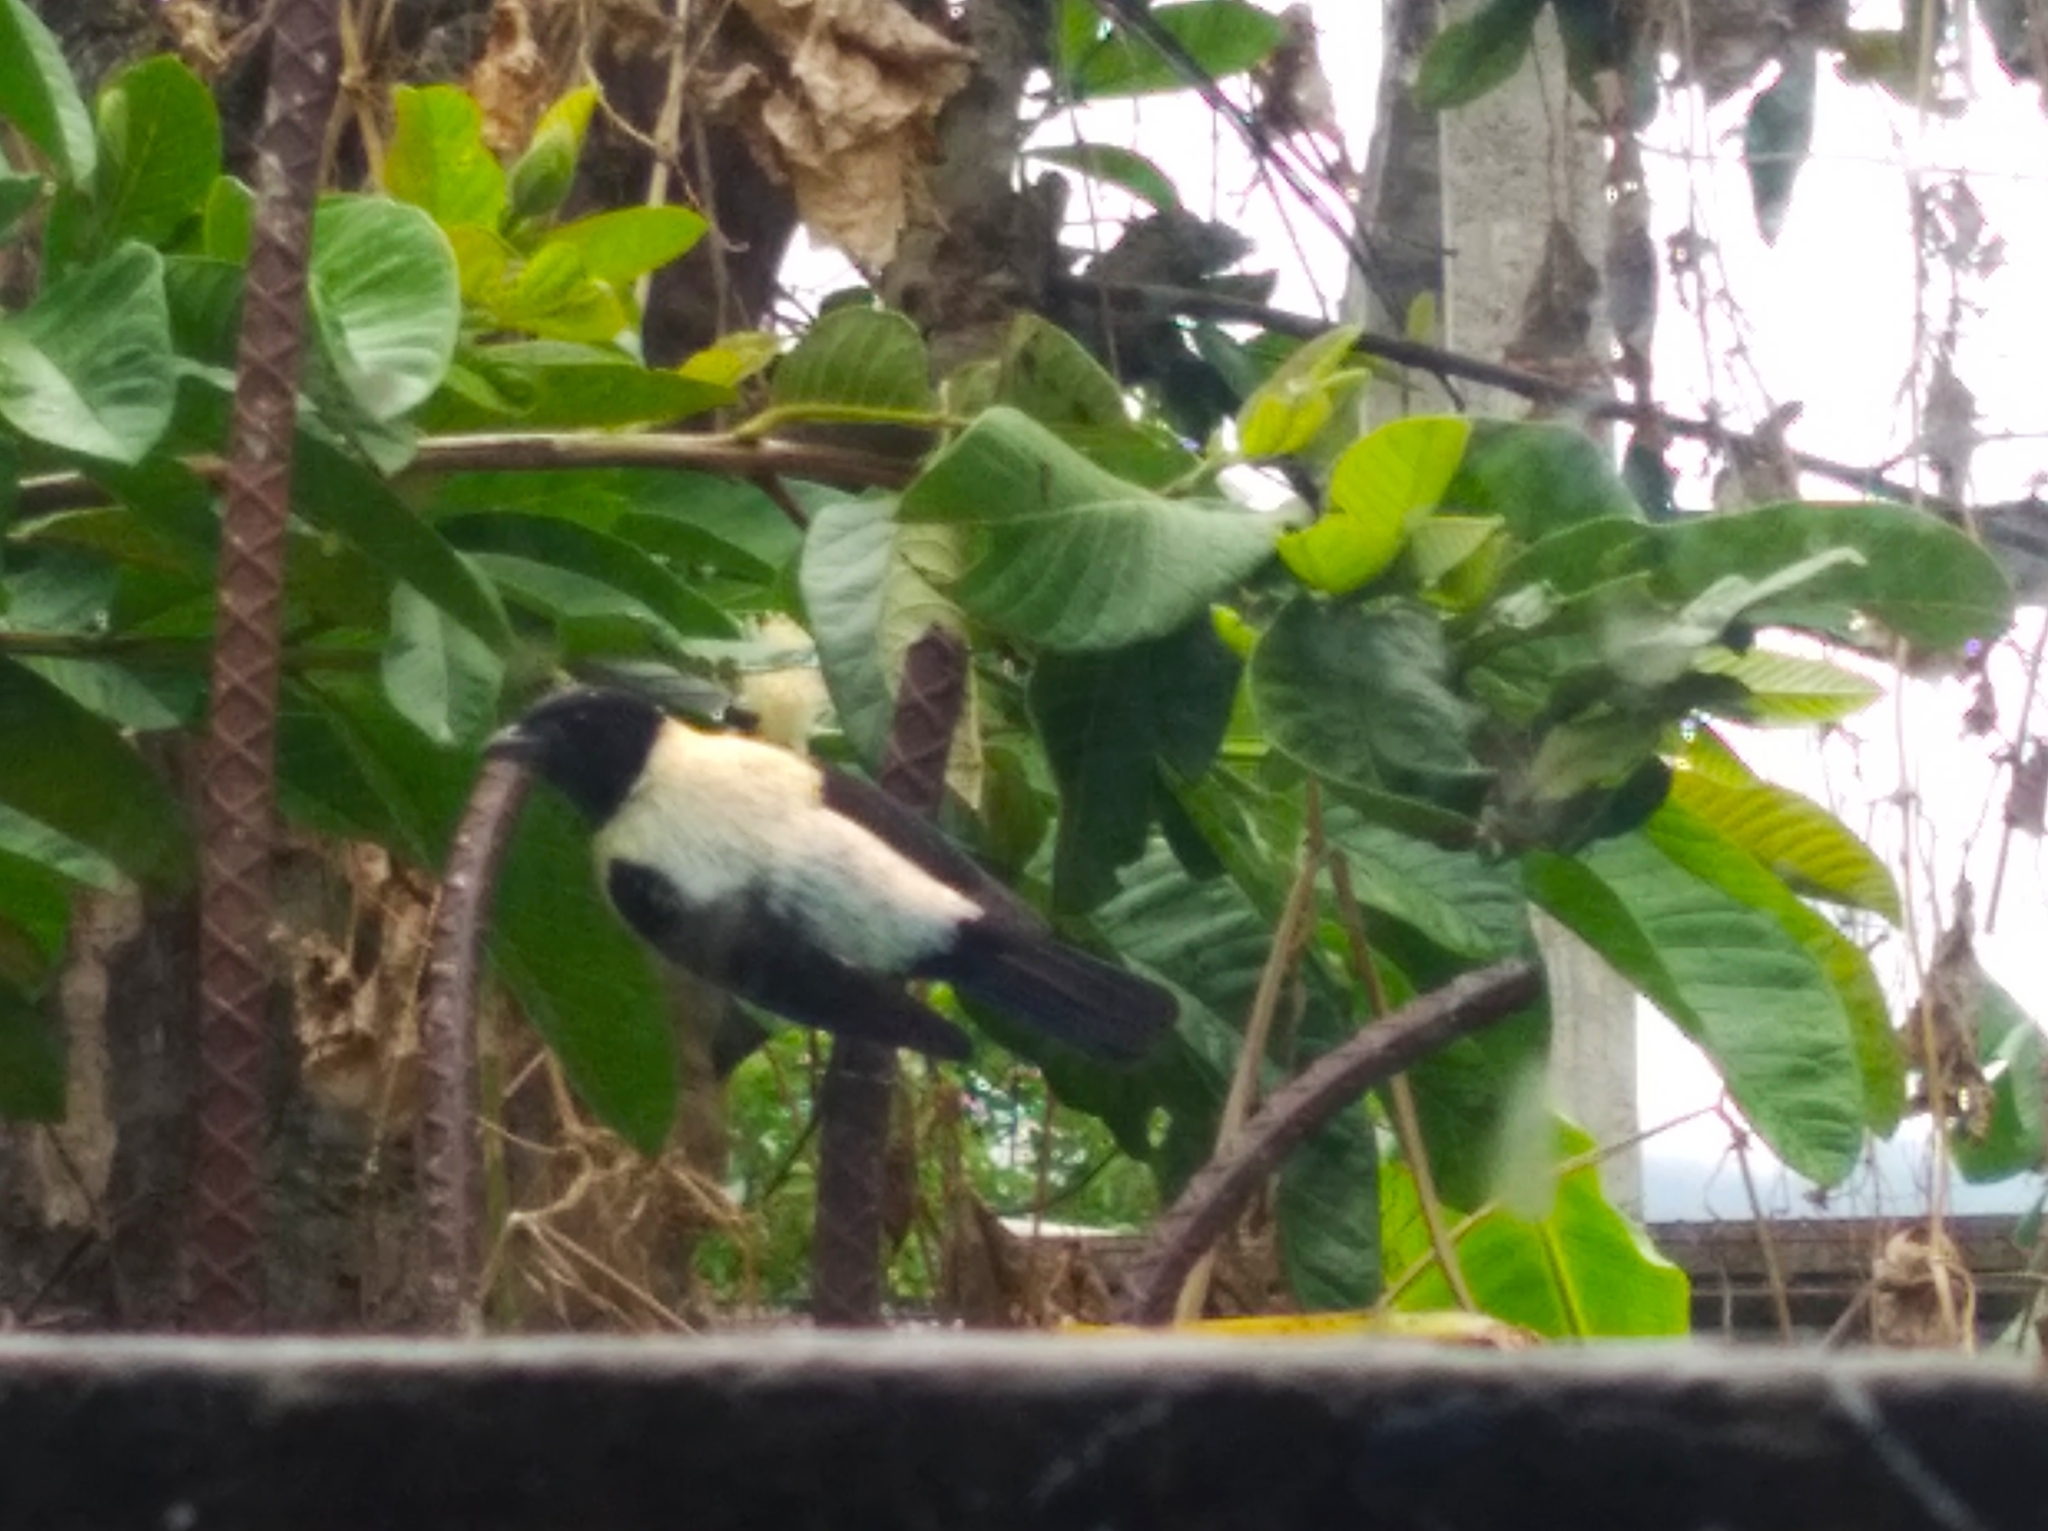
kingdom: Animalia
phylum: Chordata
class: Aves
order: Passeriformes
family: Thraupidae
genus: Stilpnia
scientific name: Stilpnia cyanoptera
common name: Black-headed tanager
